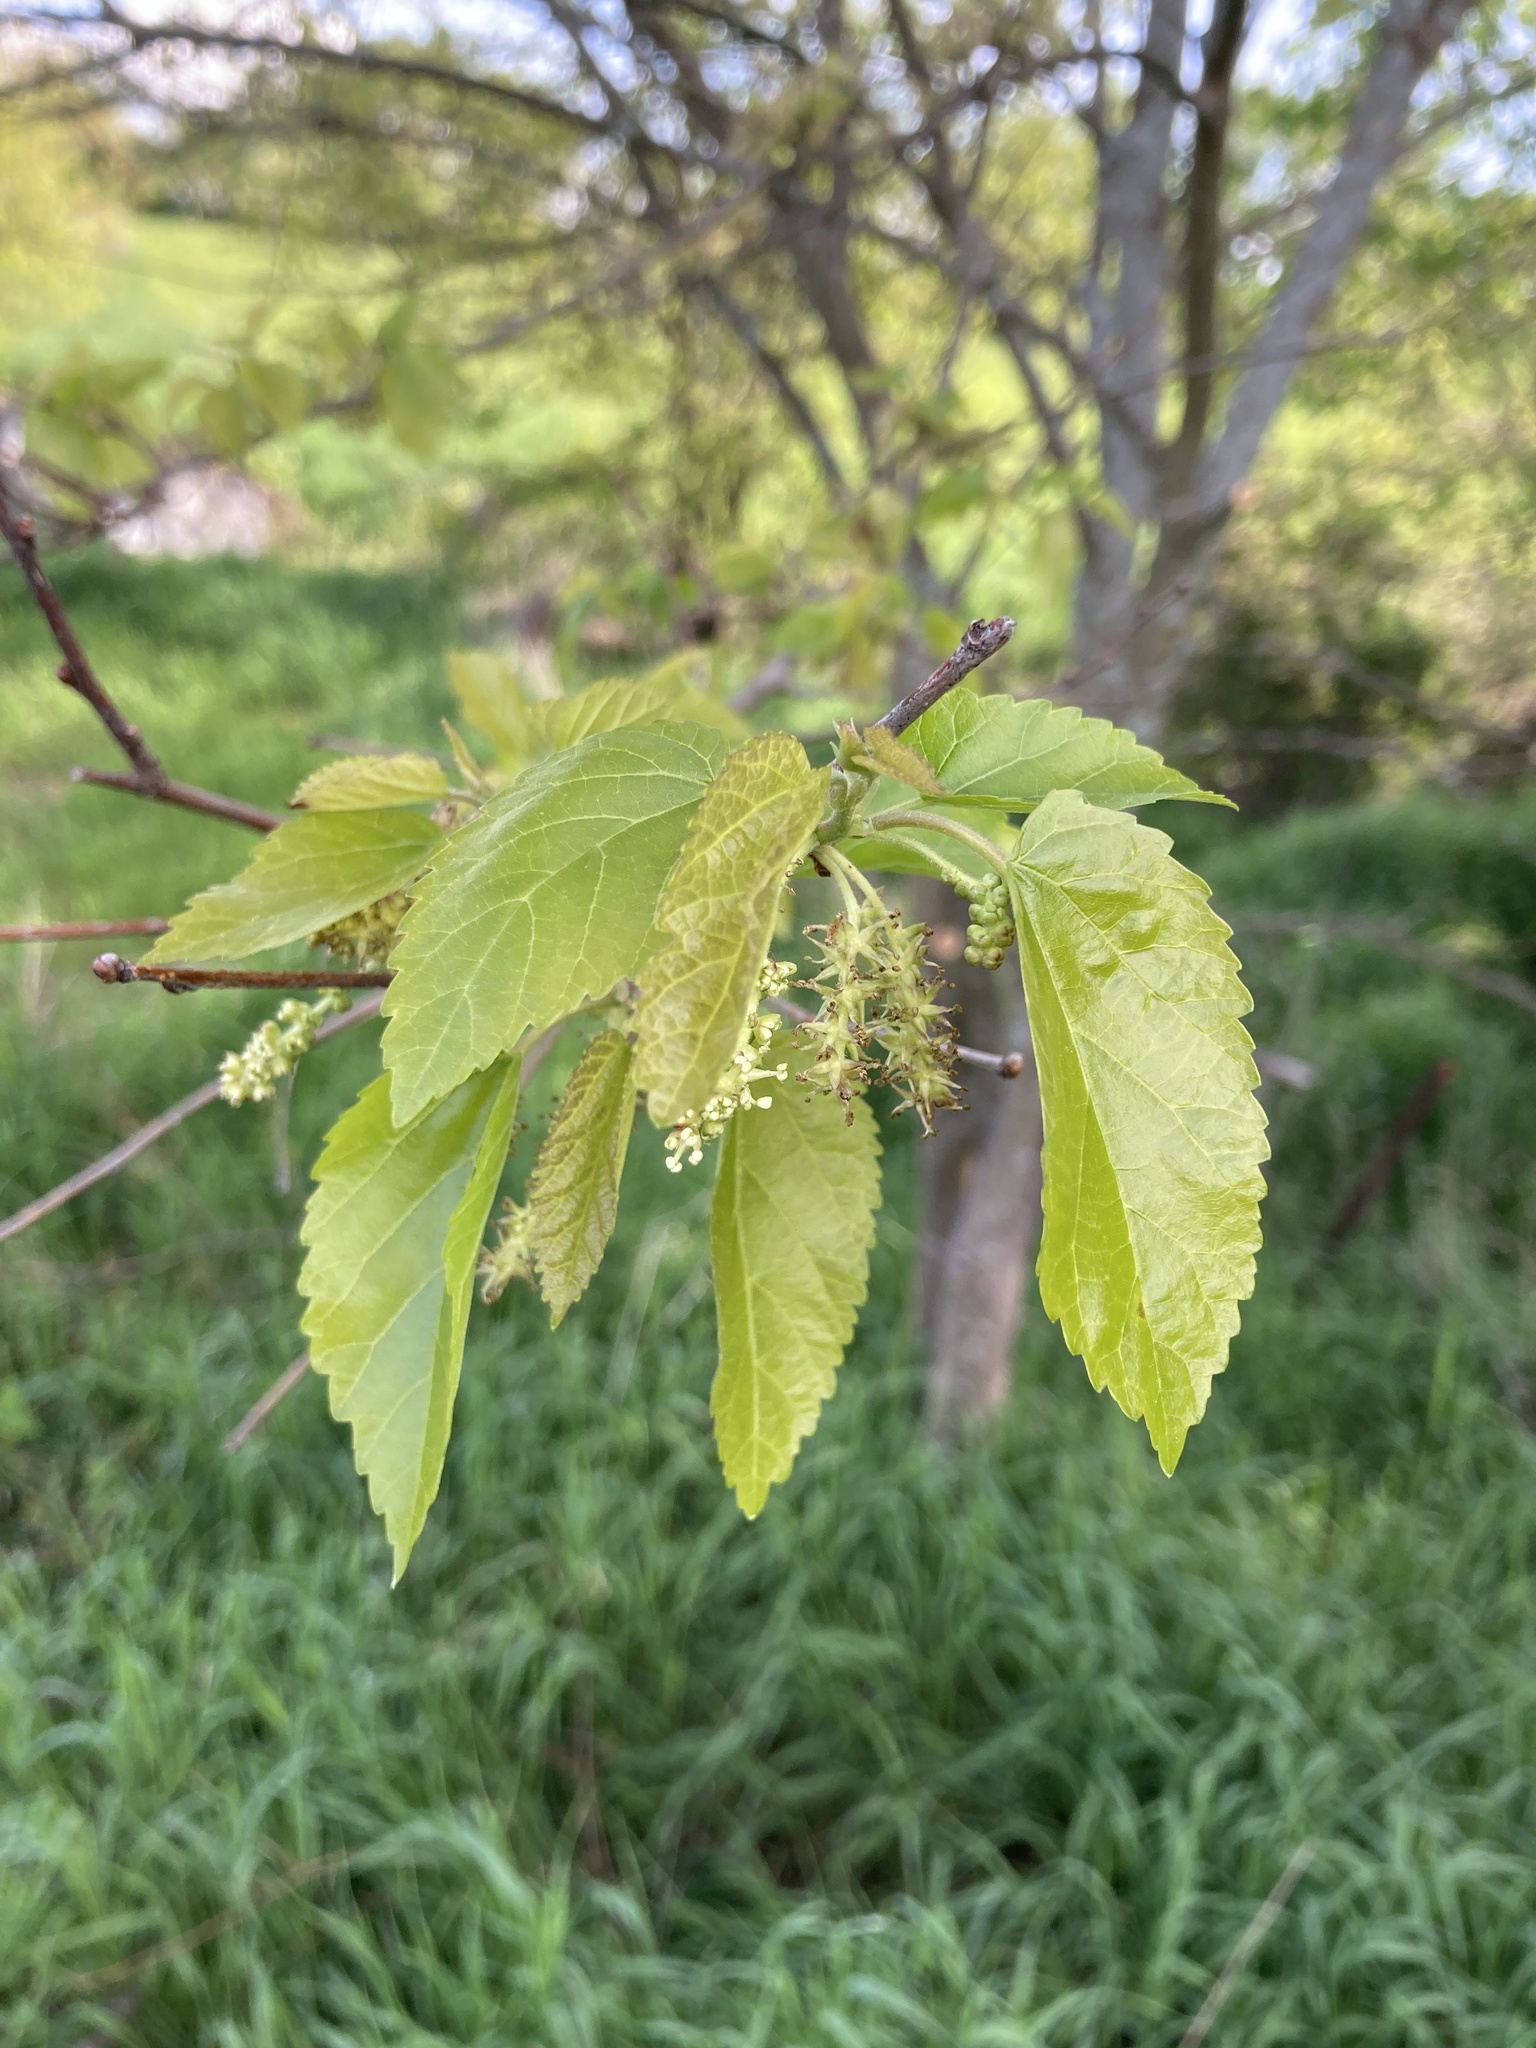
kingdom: Plantae
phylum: Tracheophyta
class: Magnoliopsida
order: Rosales
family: Moraceae
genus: Morus
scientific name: Morus alba
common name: White mulberry
